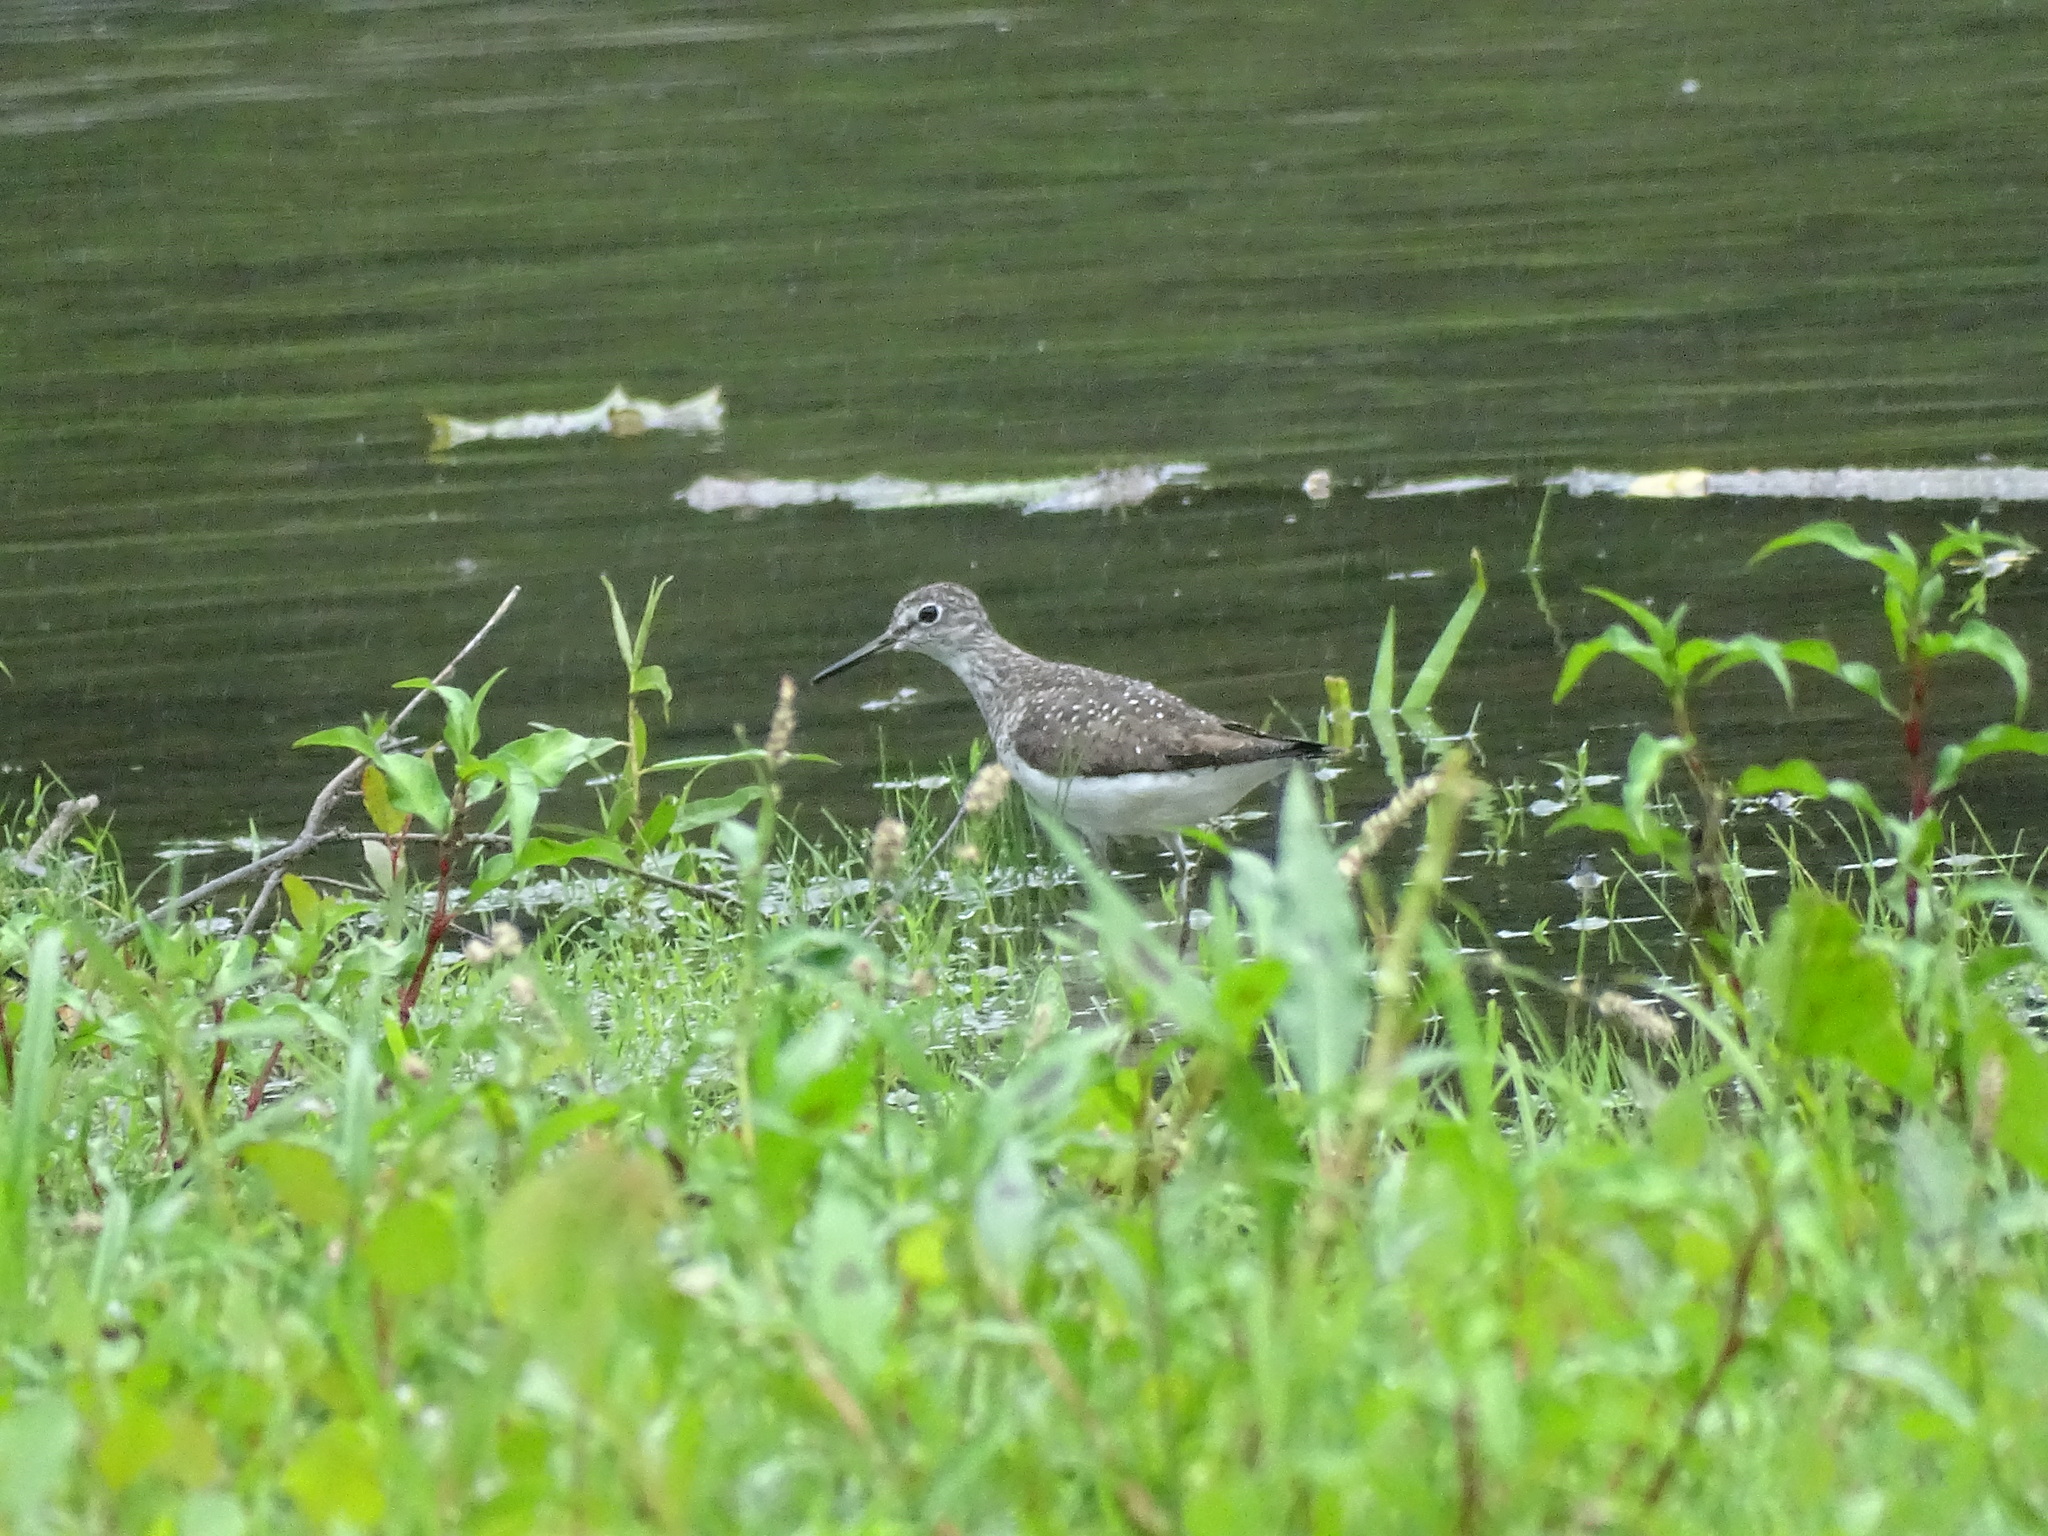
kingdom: Animalia
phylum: Chordata
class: Aves
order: Charadriiformes
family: Scolopacidae
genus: Tringa
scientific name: Tringa solitaria
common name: Solitary sandpiper
